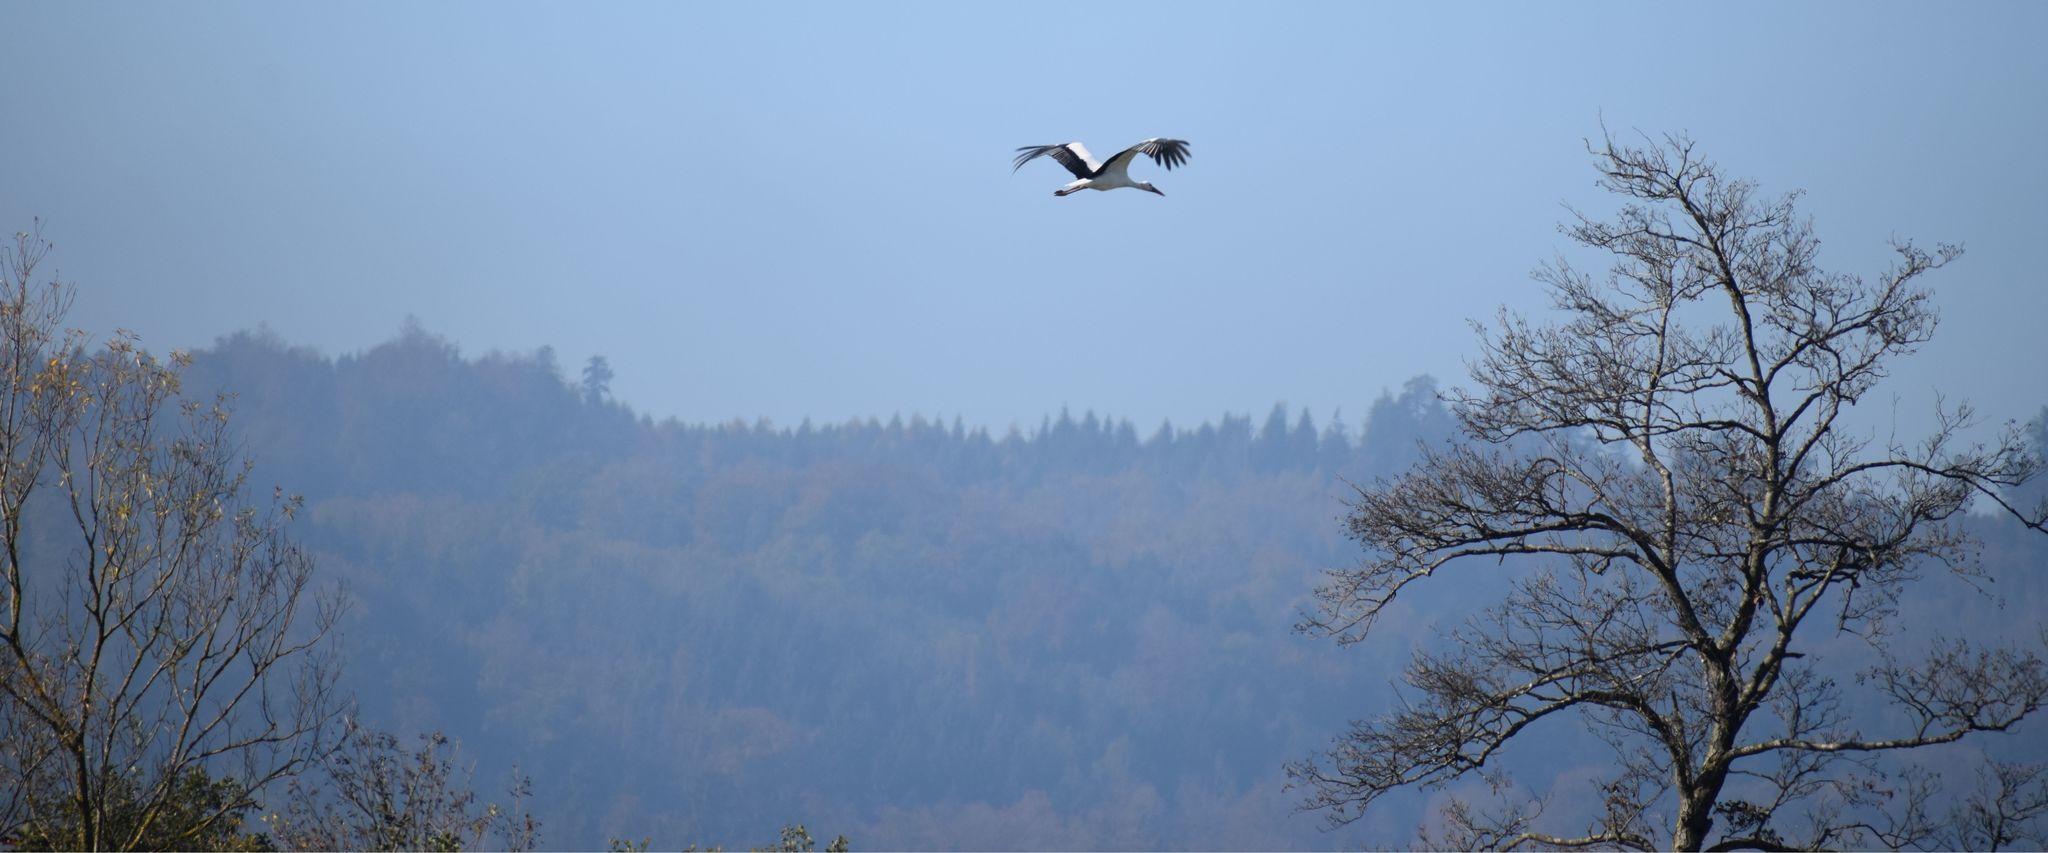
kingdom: Animalia
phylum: Chordata
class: Aves
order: Ciconiiformes
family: Ciconiidae
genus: Ciconia
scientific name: Ciconia ciconia
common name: White stork
